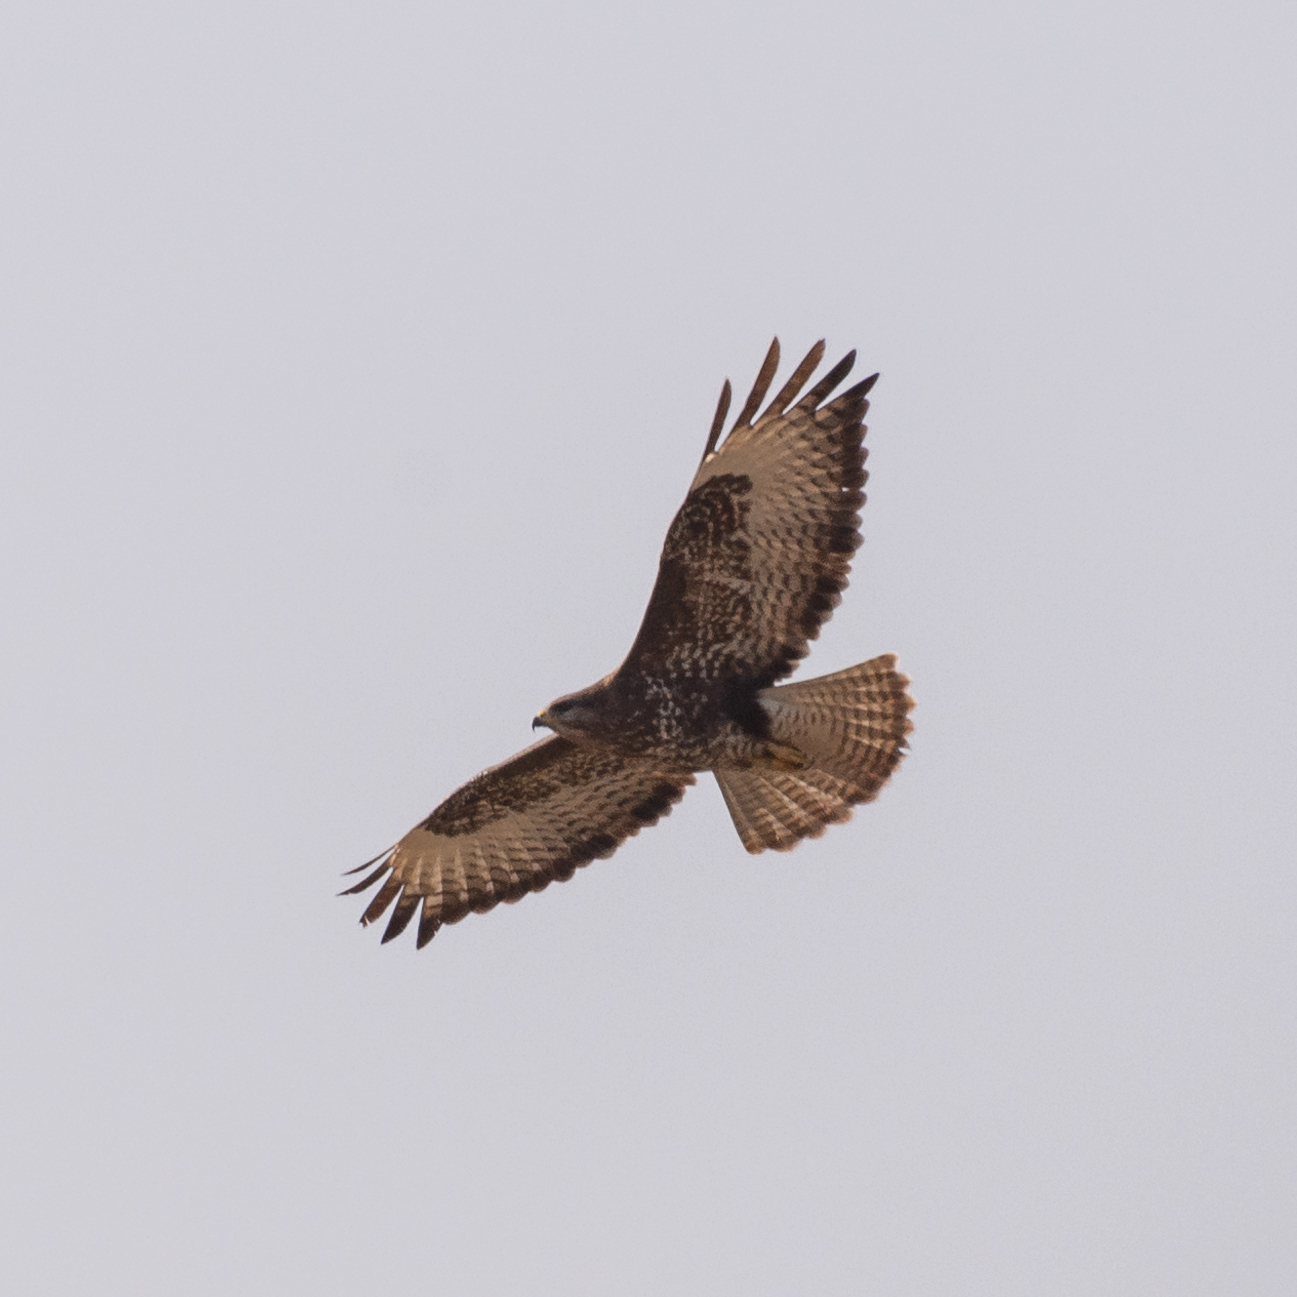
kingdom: Animalia
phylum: Chordata
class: Aves
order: Accipitriformes
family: Accipitridae
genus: Buteo
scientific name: Buteo buteo
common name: Common buzzard
